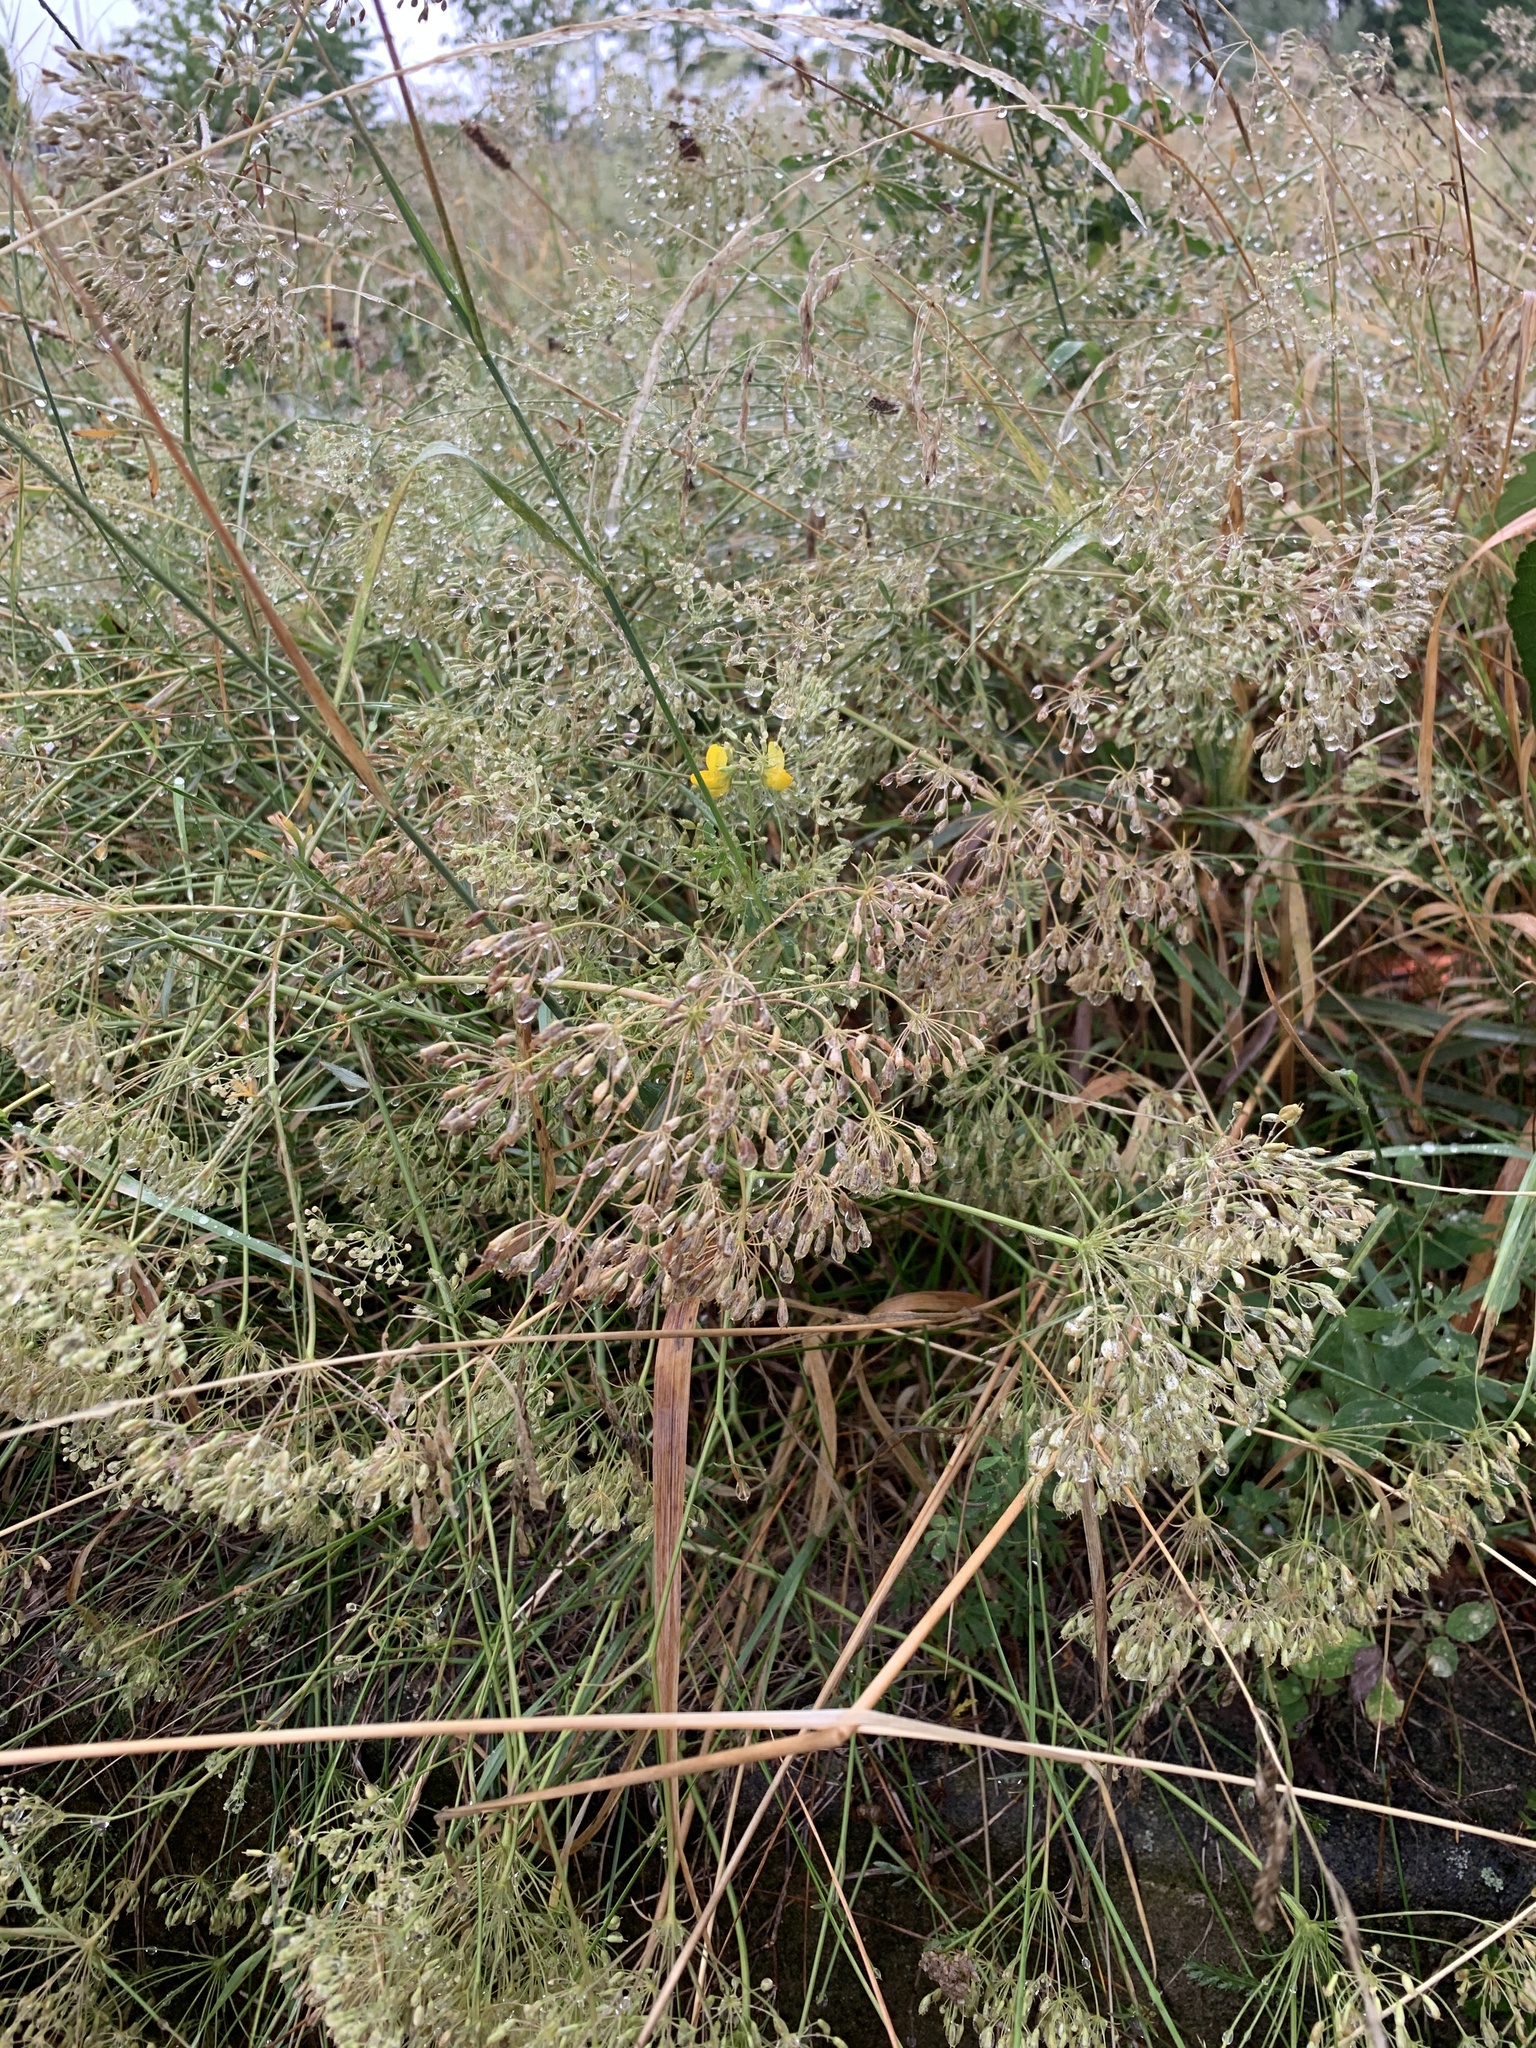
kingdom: Plantae
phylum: Tracheophyta
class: Magnoliopsida
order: Apiales
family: Apiaceae
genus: Falcaria
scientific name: Falcaria vulgaris
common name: Longleaf
